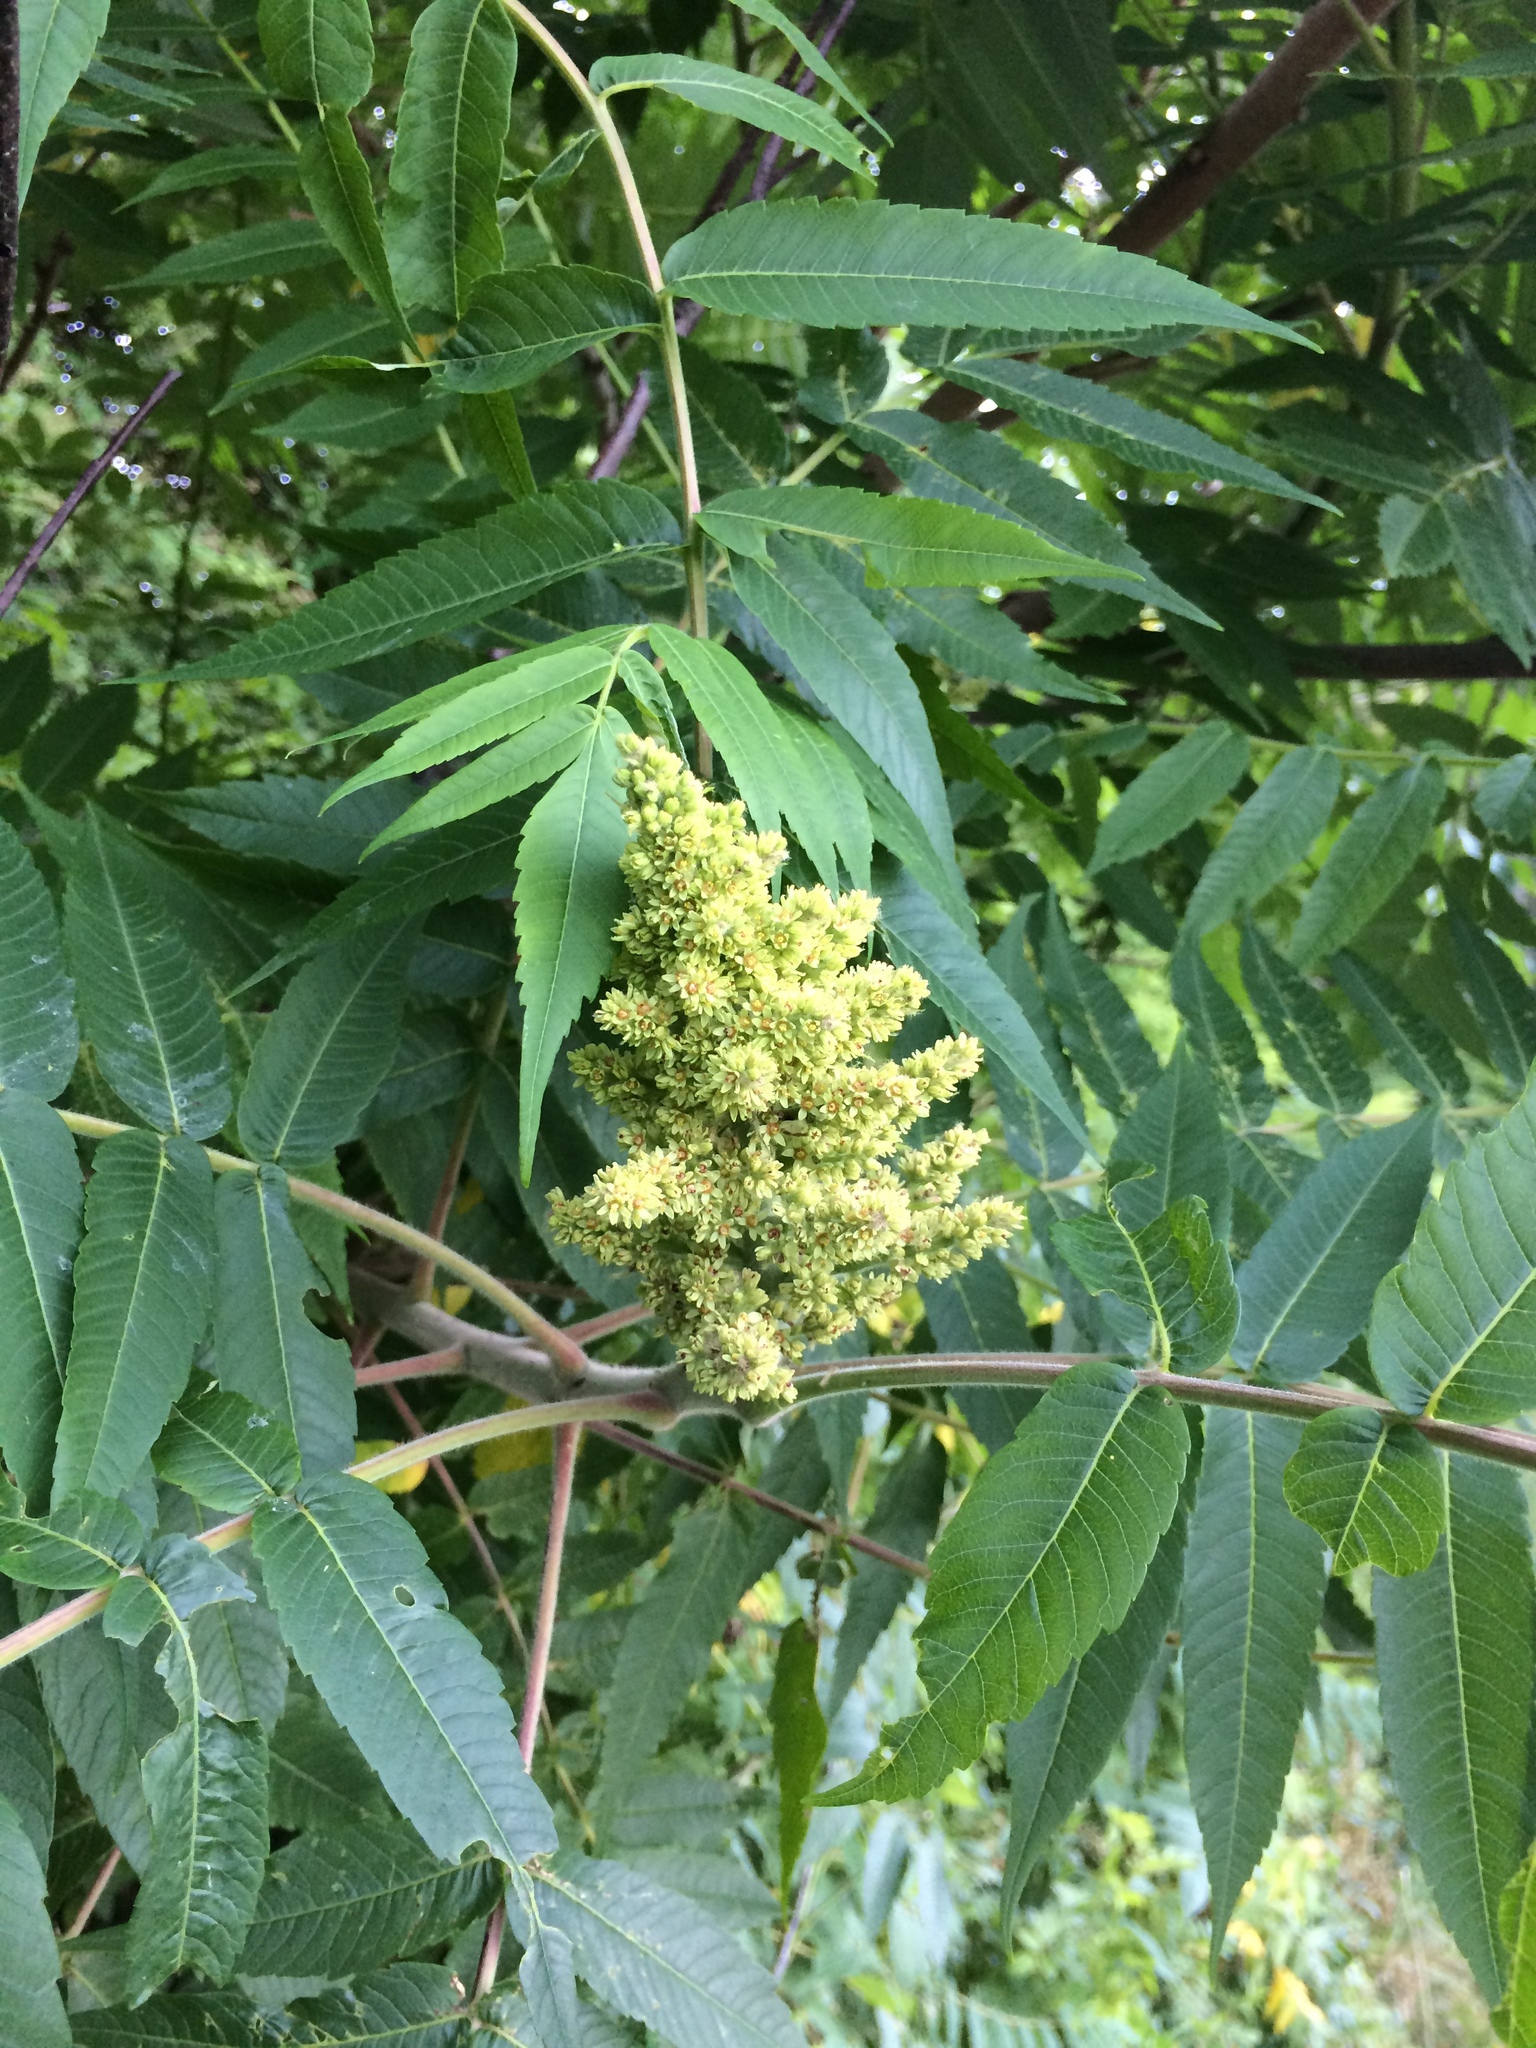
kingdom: Plantae
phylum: Tracheophyta
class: Magnoliopsida
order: Sapindales
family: Anacardiaceae
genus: Rhus
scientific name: Rhus typhina
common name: Staghorn sumac
